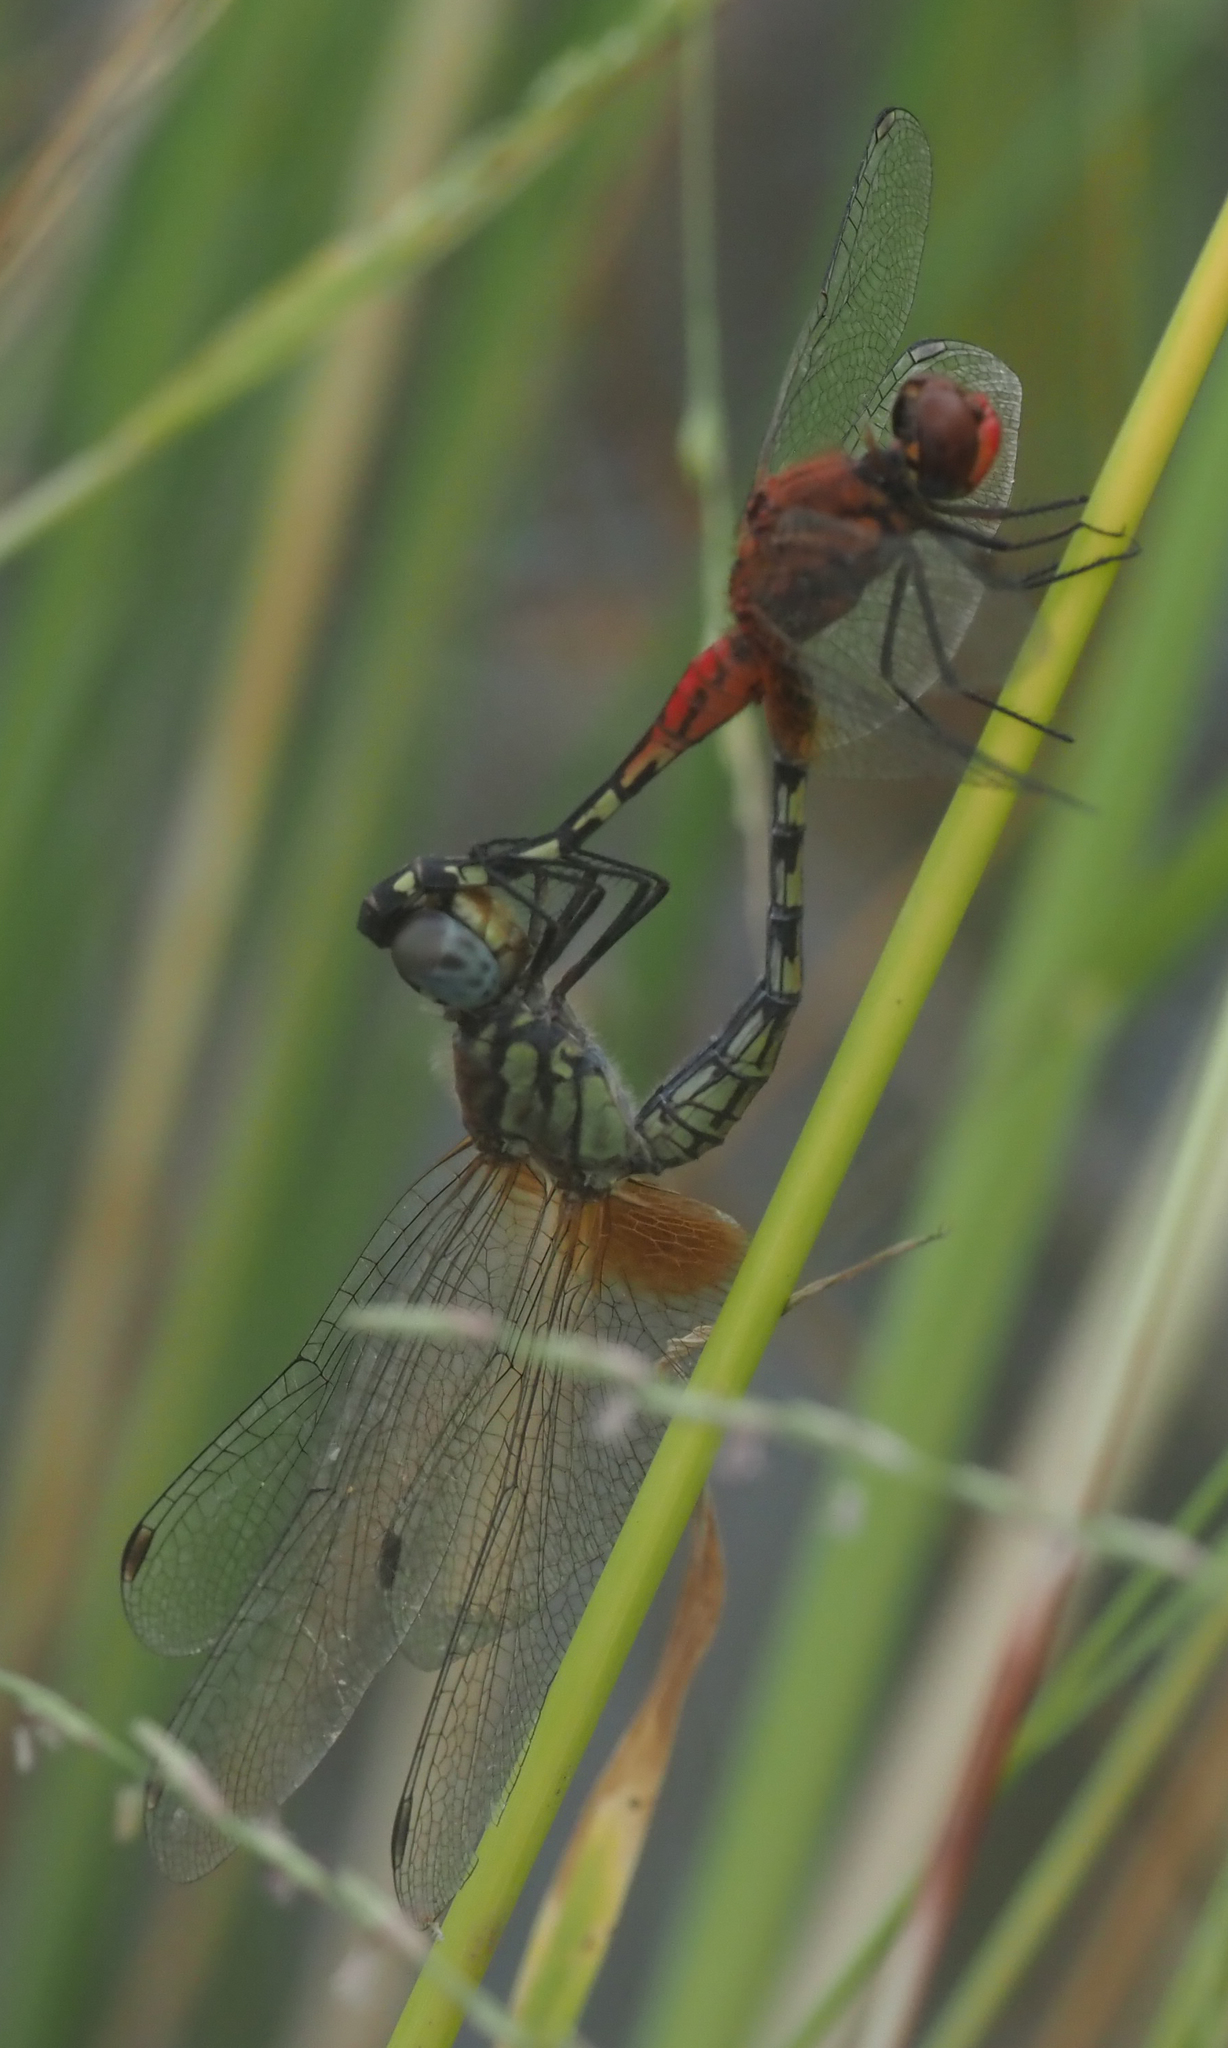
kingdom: Animalia
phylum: Arthropoda
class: Insecta
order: Odonata
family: Libellulidae
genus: Diplacodes
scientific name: Diplacodes luminans
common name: Barbet percher
